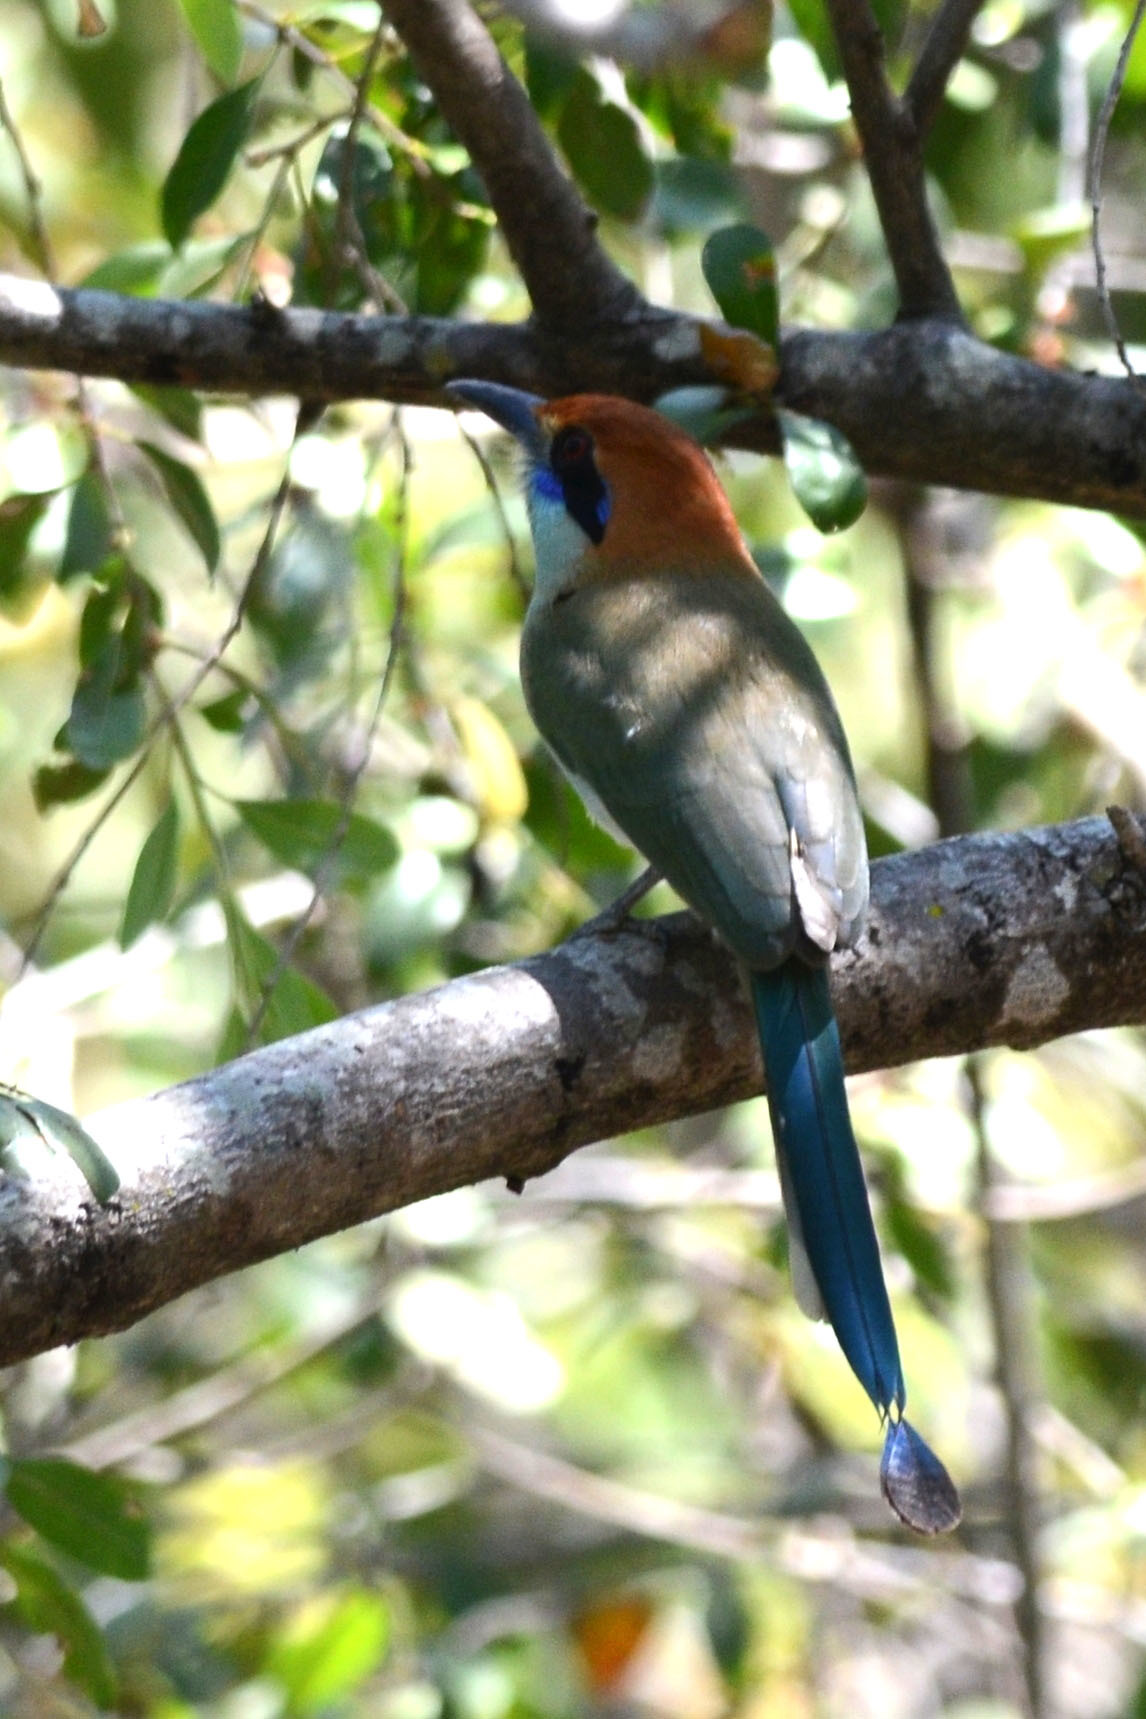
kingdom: Animalia
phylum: Chordata
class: Aves
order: Coraciiformes
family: Momotidae
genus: Momotus
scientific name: Momotus mexicanus
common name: Russet-crowned motmot
